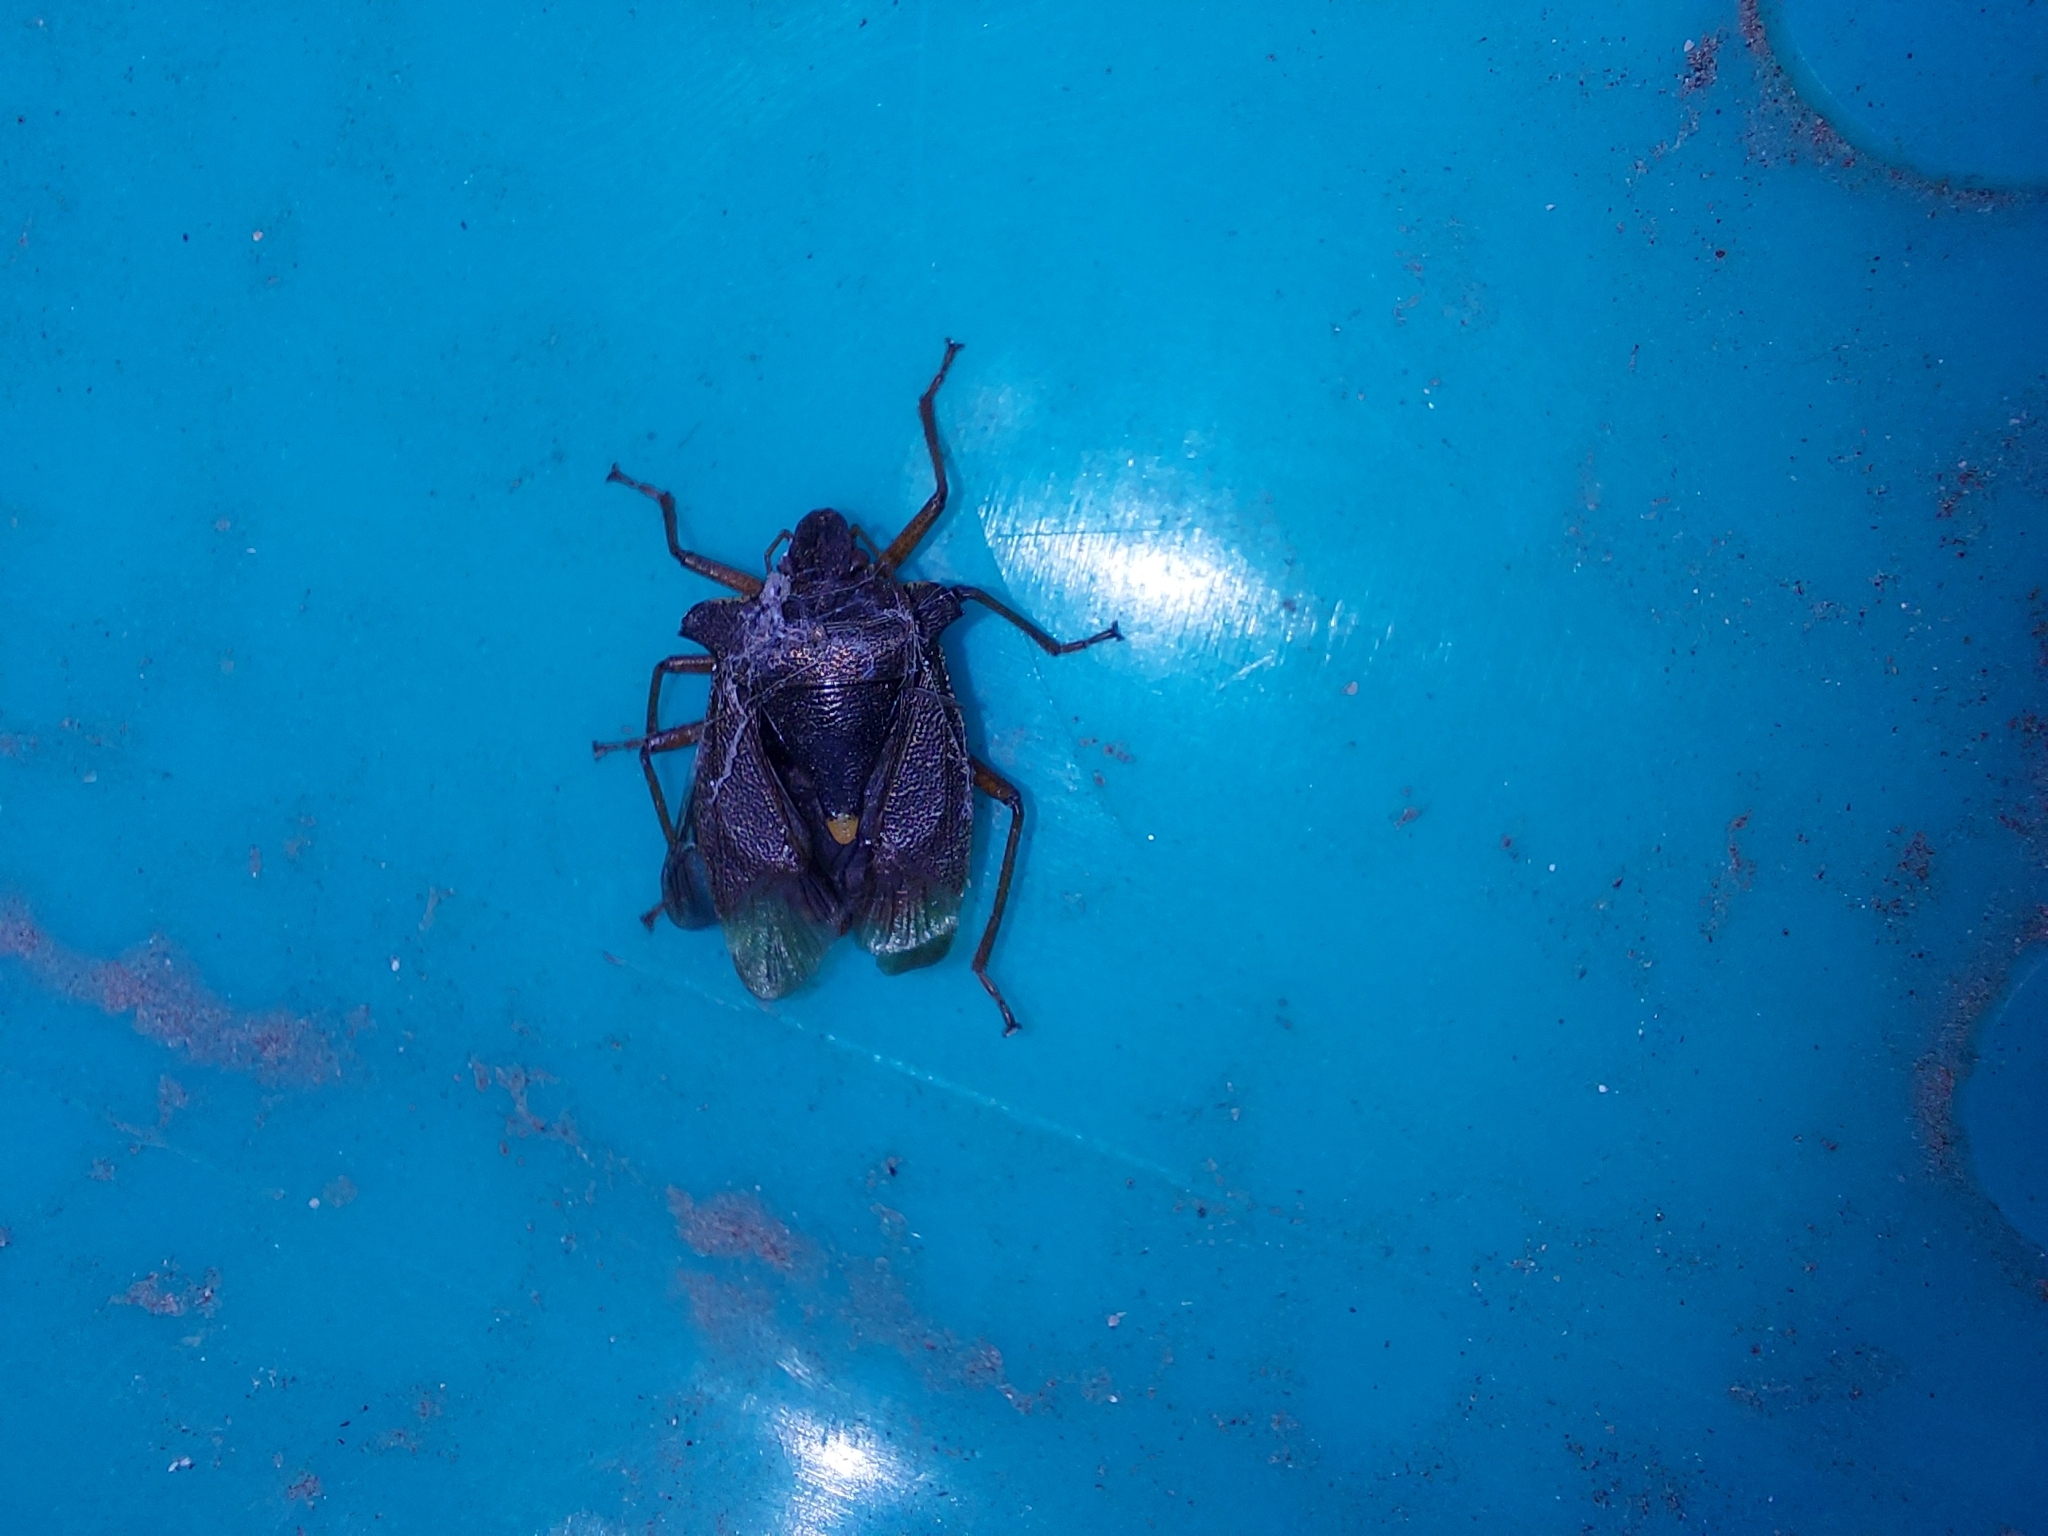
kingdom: Animalia
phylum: Arthropoda
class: Insecta
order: Hemiptera
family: Pentatomidae
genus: Pentatoma
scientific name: Pentatoma rufipes
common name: Forest bug
